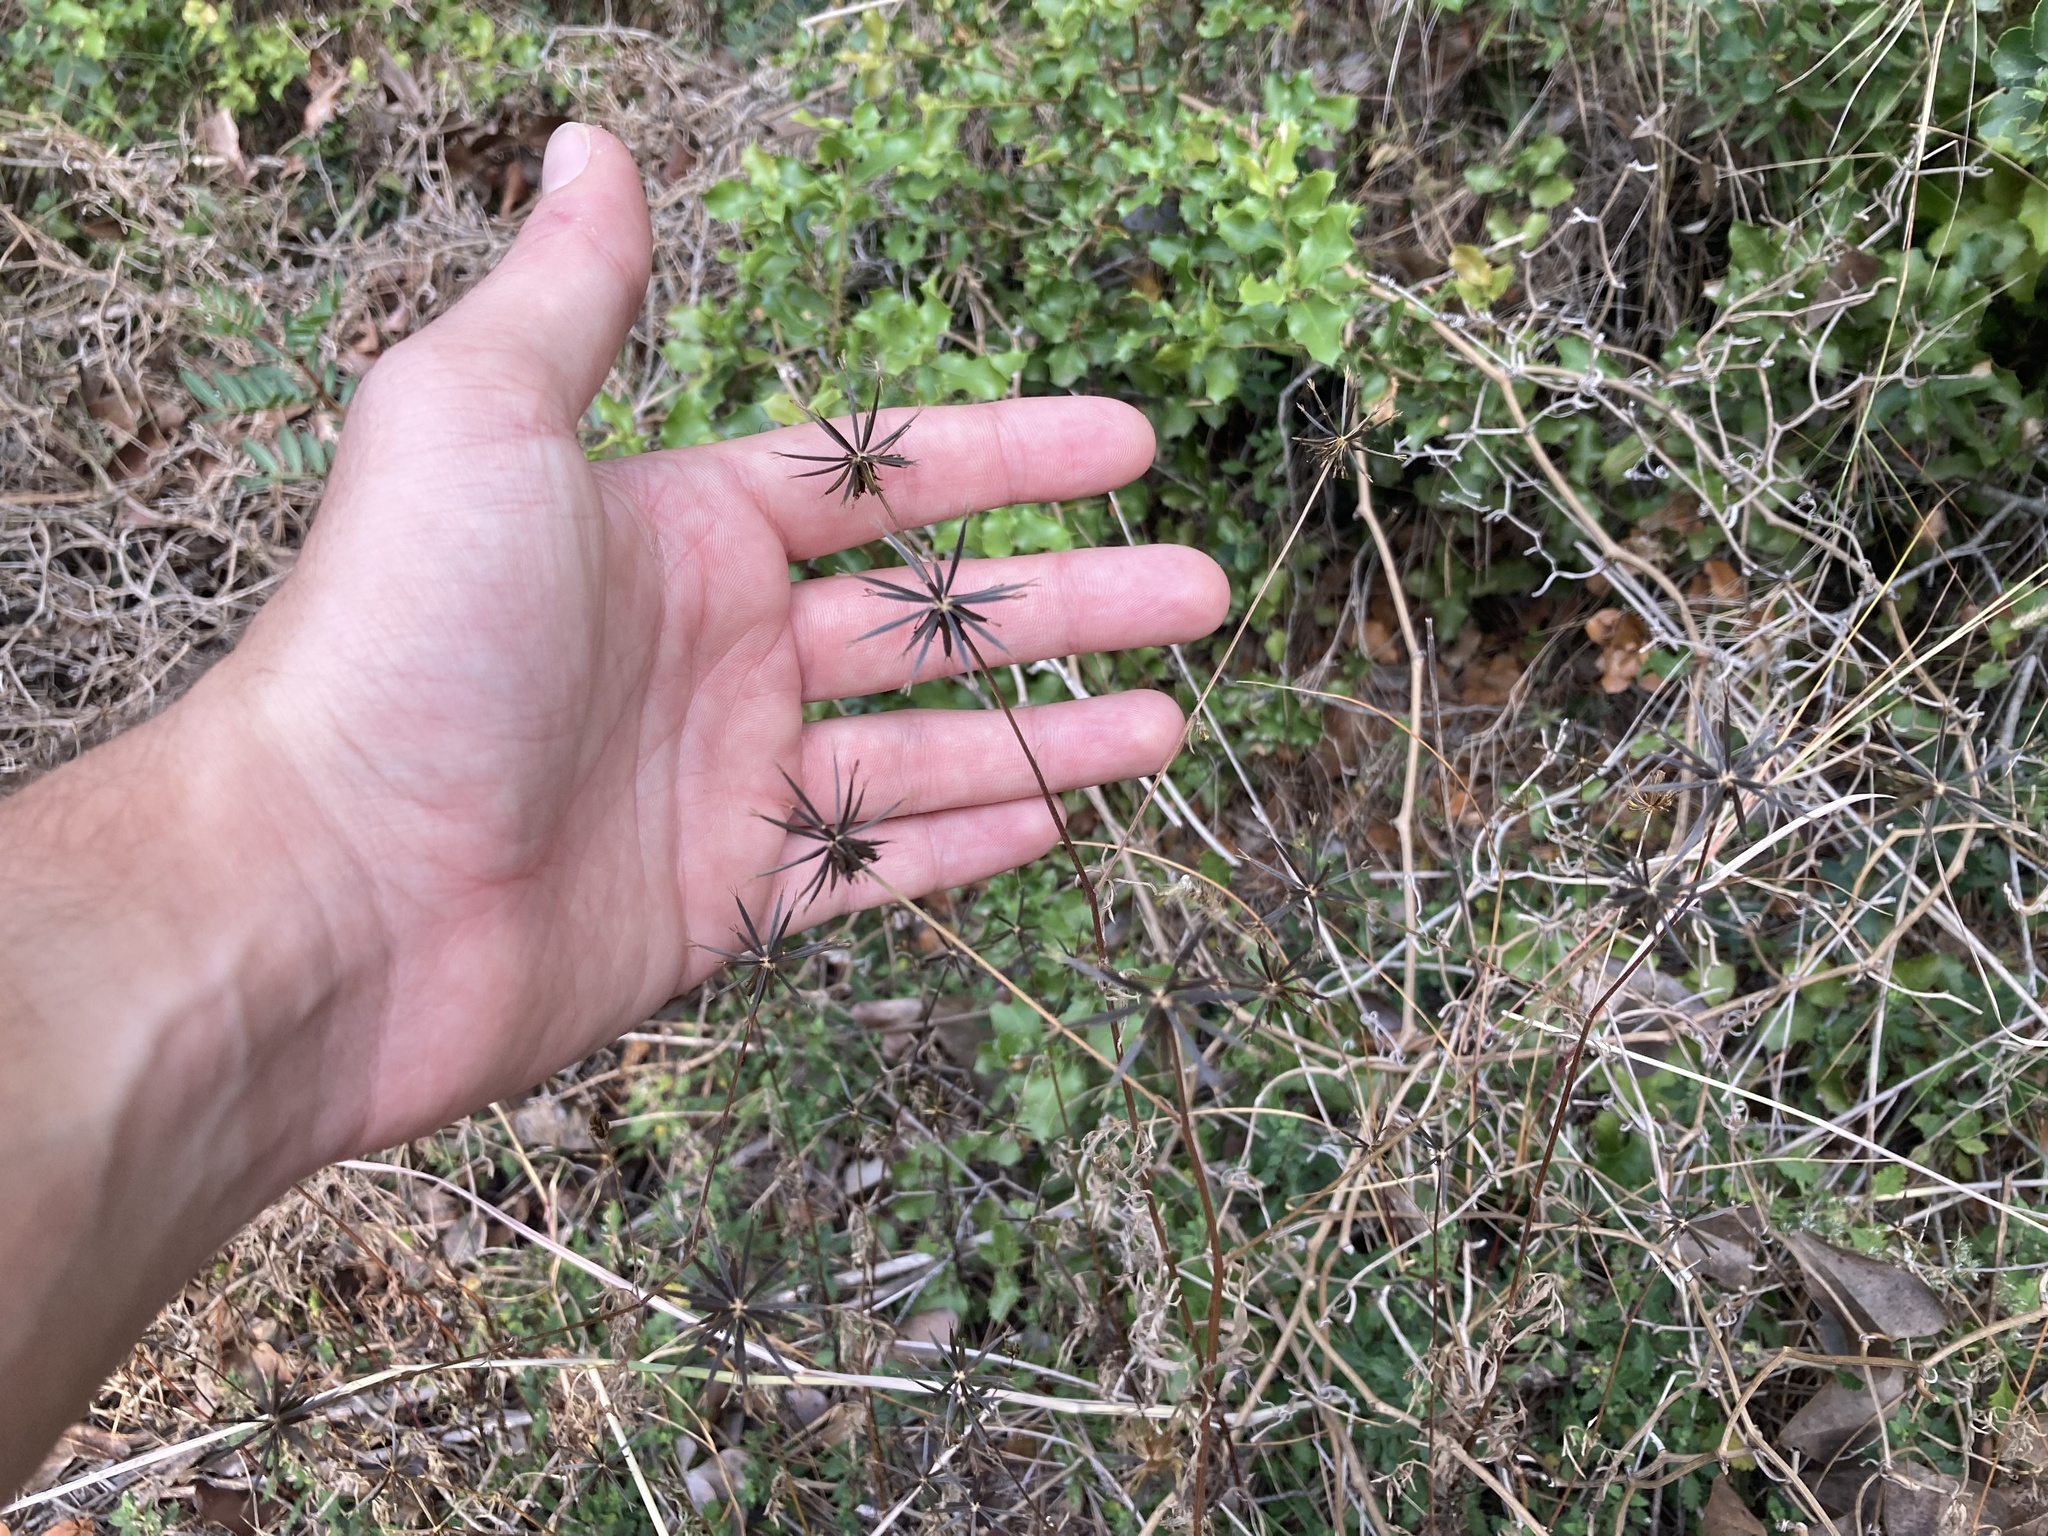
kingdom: Plantae
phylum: Tracheophyta
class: Magnoliopsida
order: Asterales
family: Asteraceae
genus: Bidens
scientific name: Bidens subalternans
